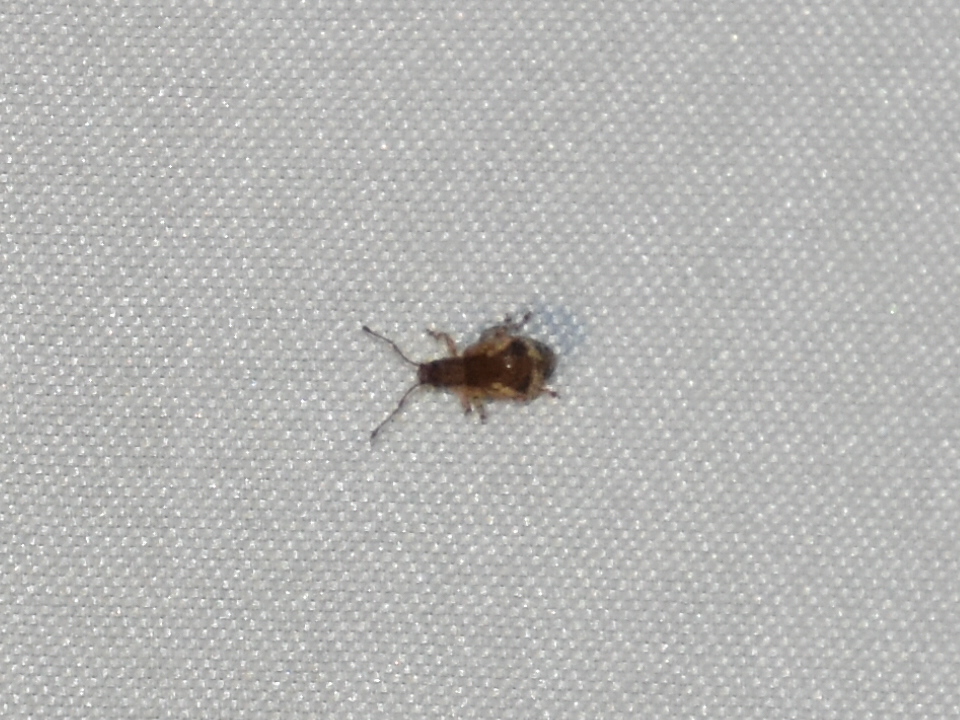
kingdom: Animalia
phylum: Arthropoda
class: Insecta
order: Coleoptera
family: Curculionidae
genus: Pseudoedophrys
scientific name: Pseudoedophrys hilleri
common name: Weevil
